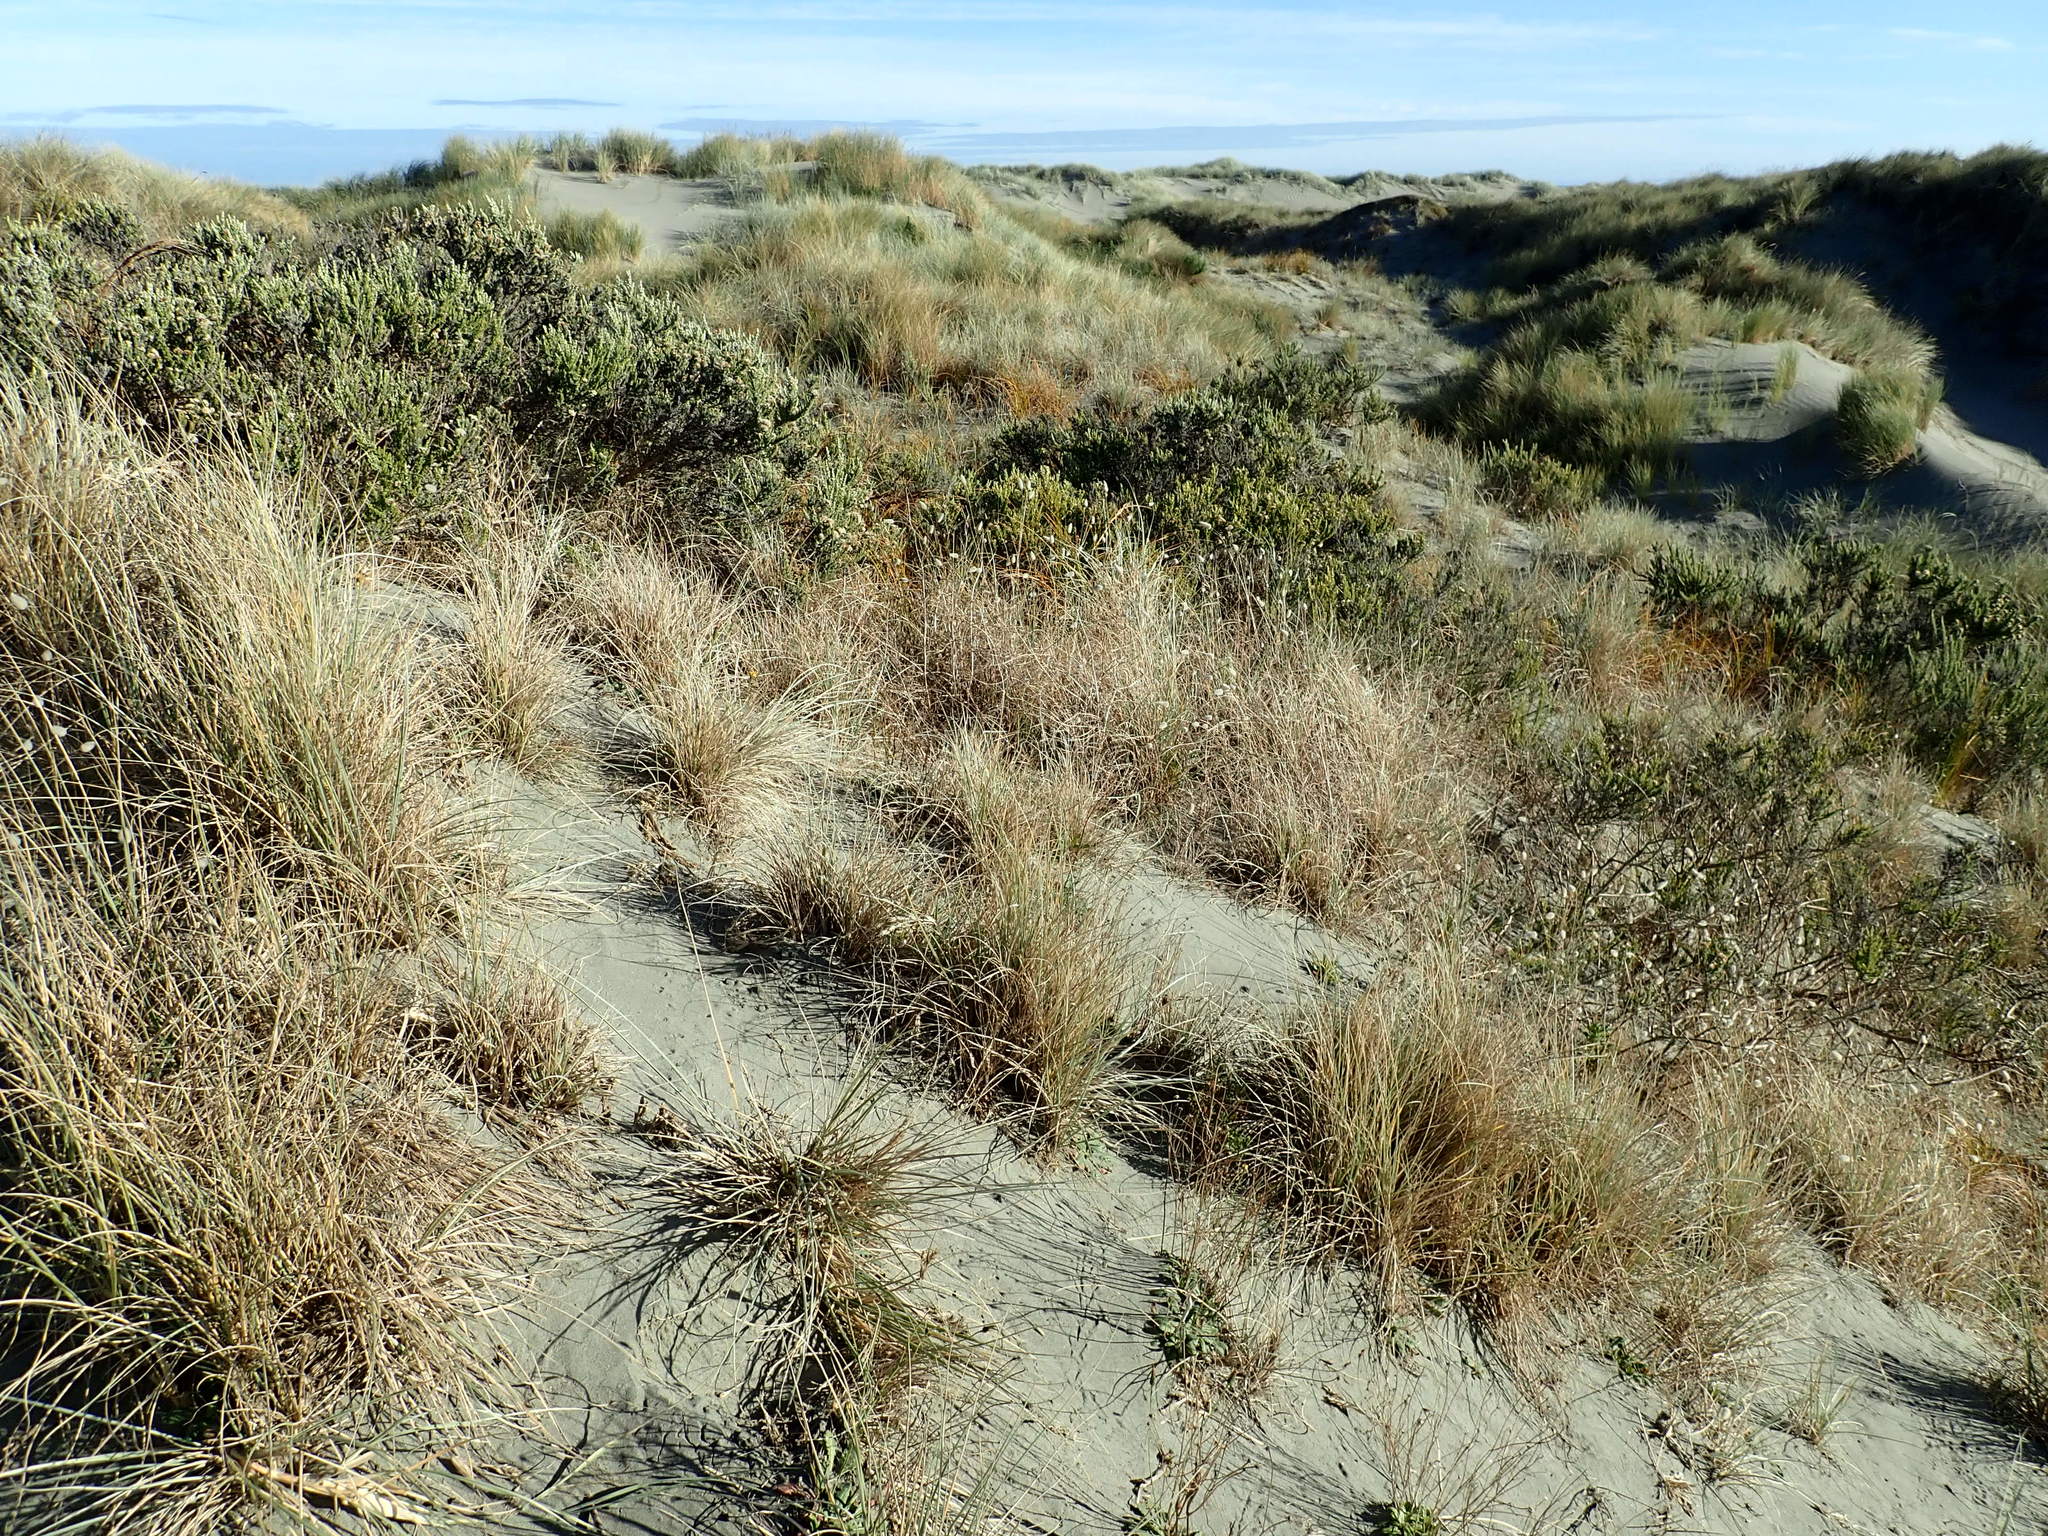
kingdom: Plantae
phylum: Tracheophyta
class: Magnoliopsida
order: Asterales
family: Asteraceae
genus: Ozothamnus
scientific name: Ozothamnus leptophyllus
